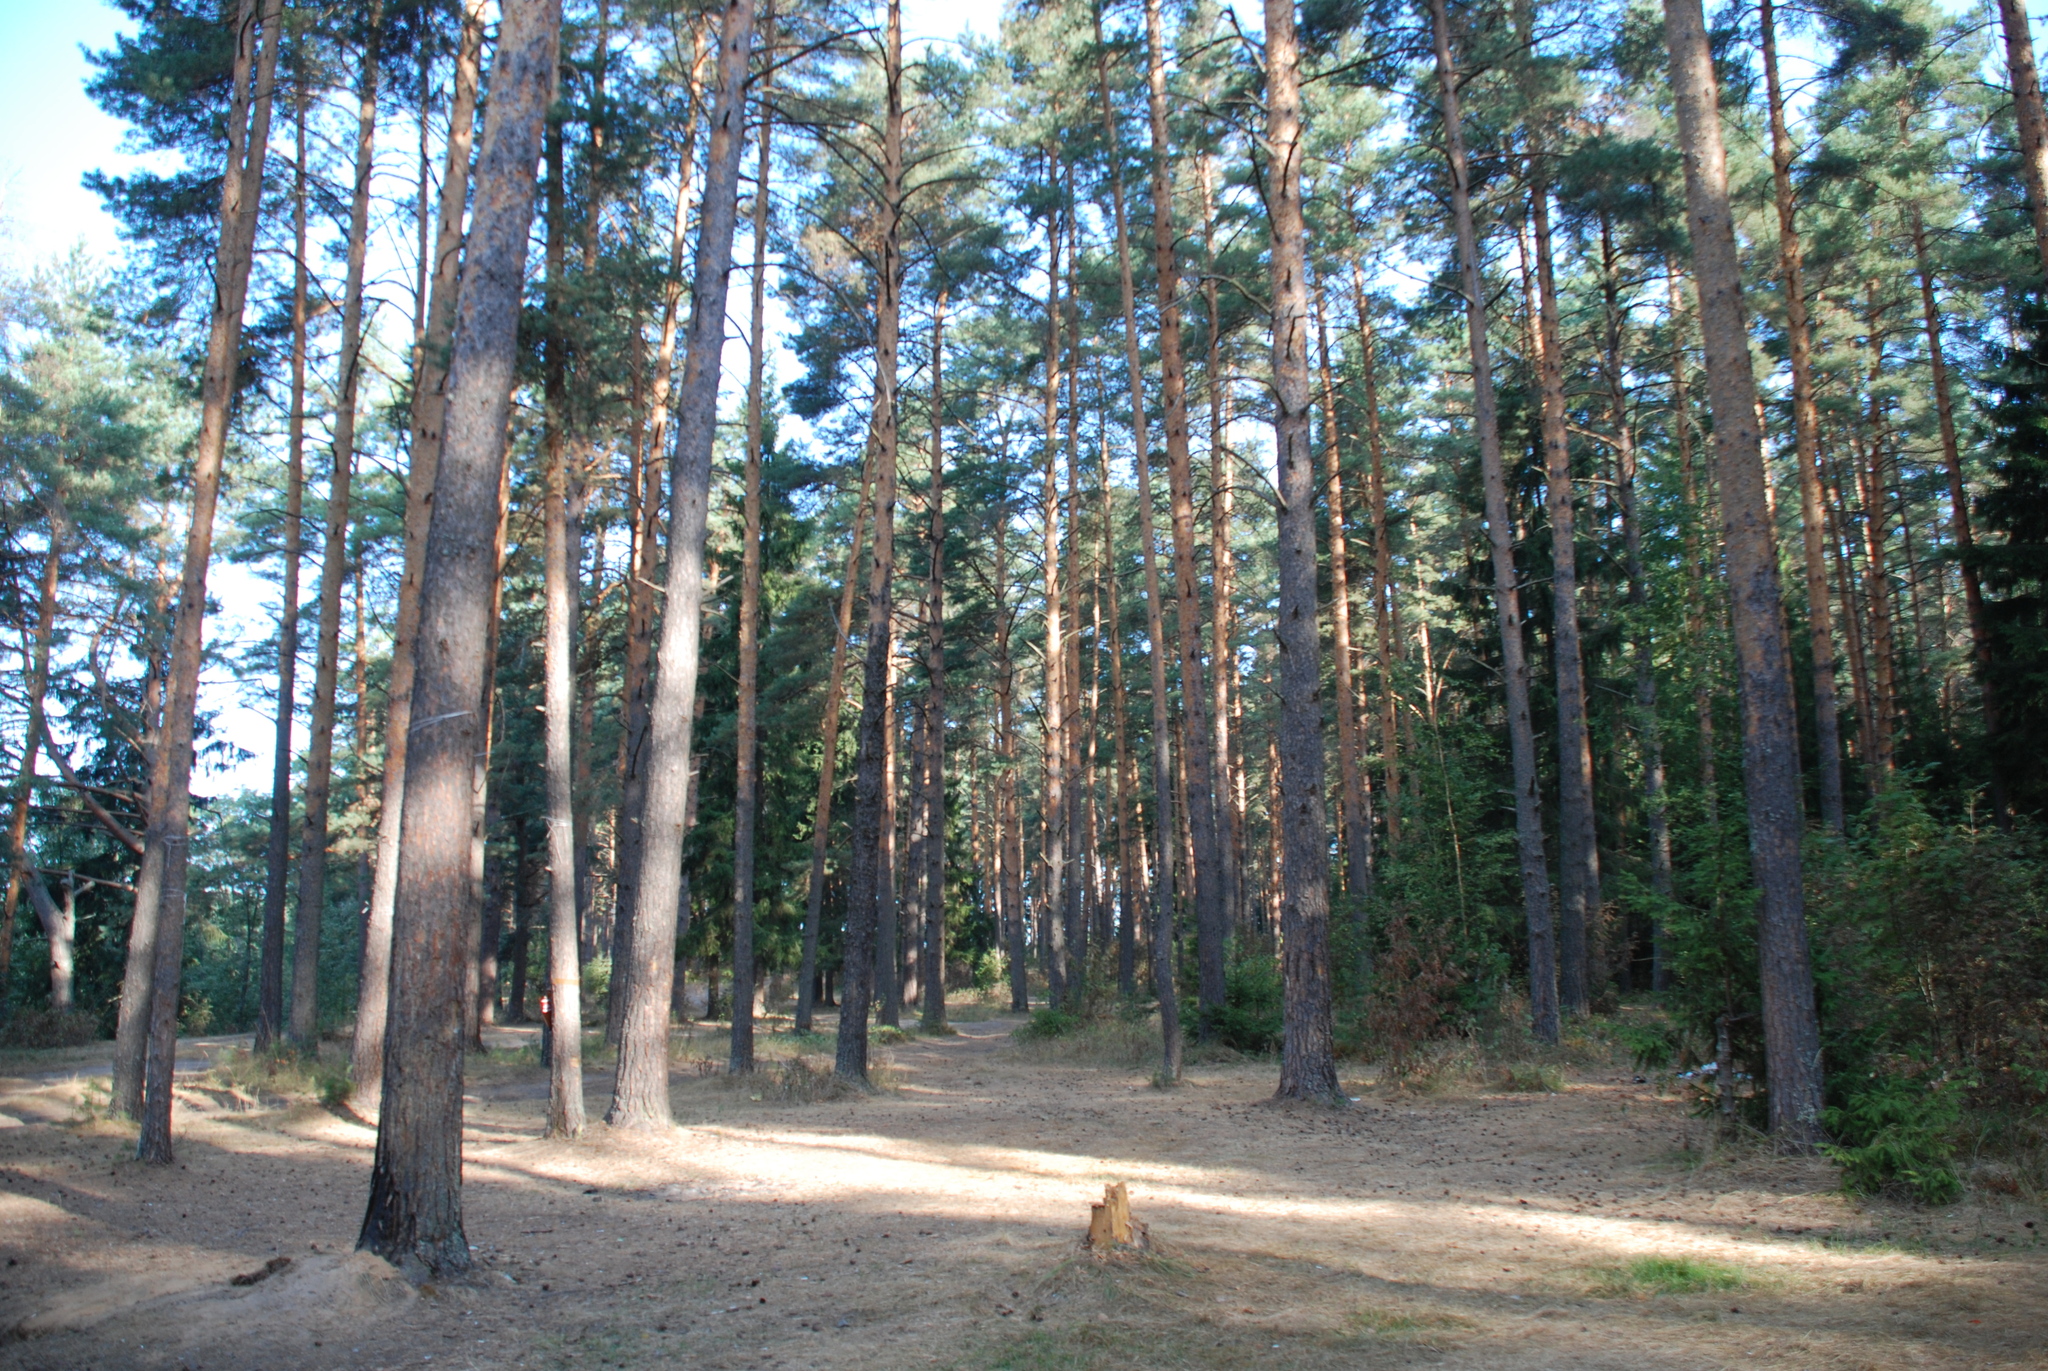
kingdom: Plantae
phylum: Tracheophyta
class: Pinopsida
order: Pinales
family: Pinaceae
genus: Pinus
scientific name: Pinus sylvestris
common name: Scots pine
